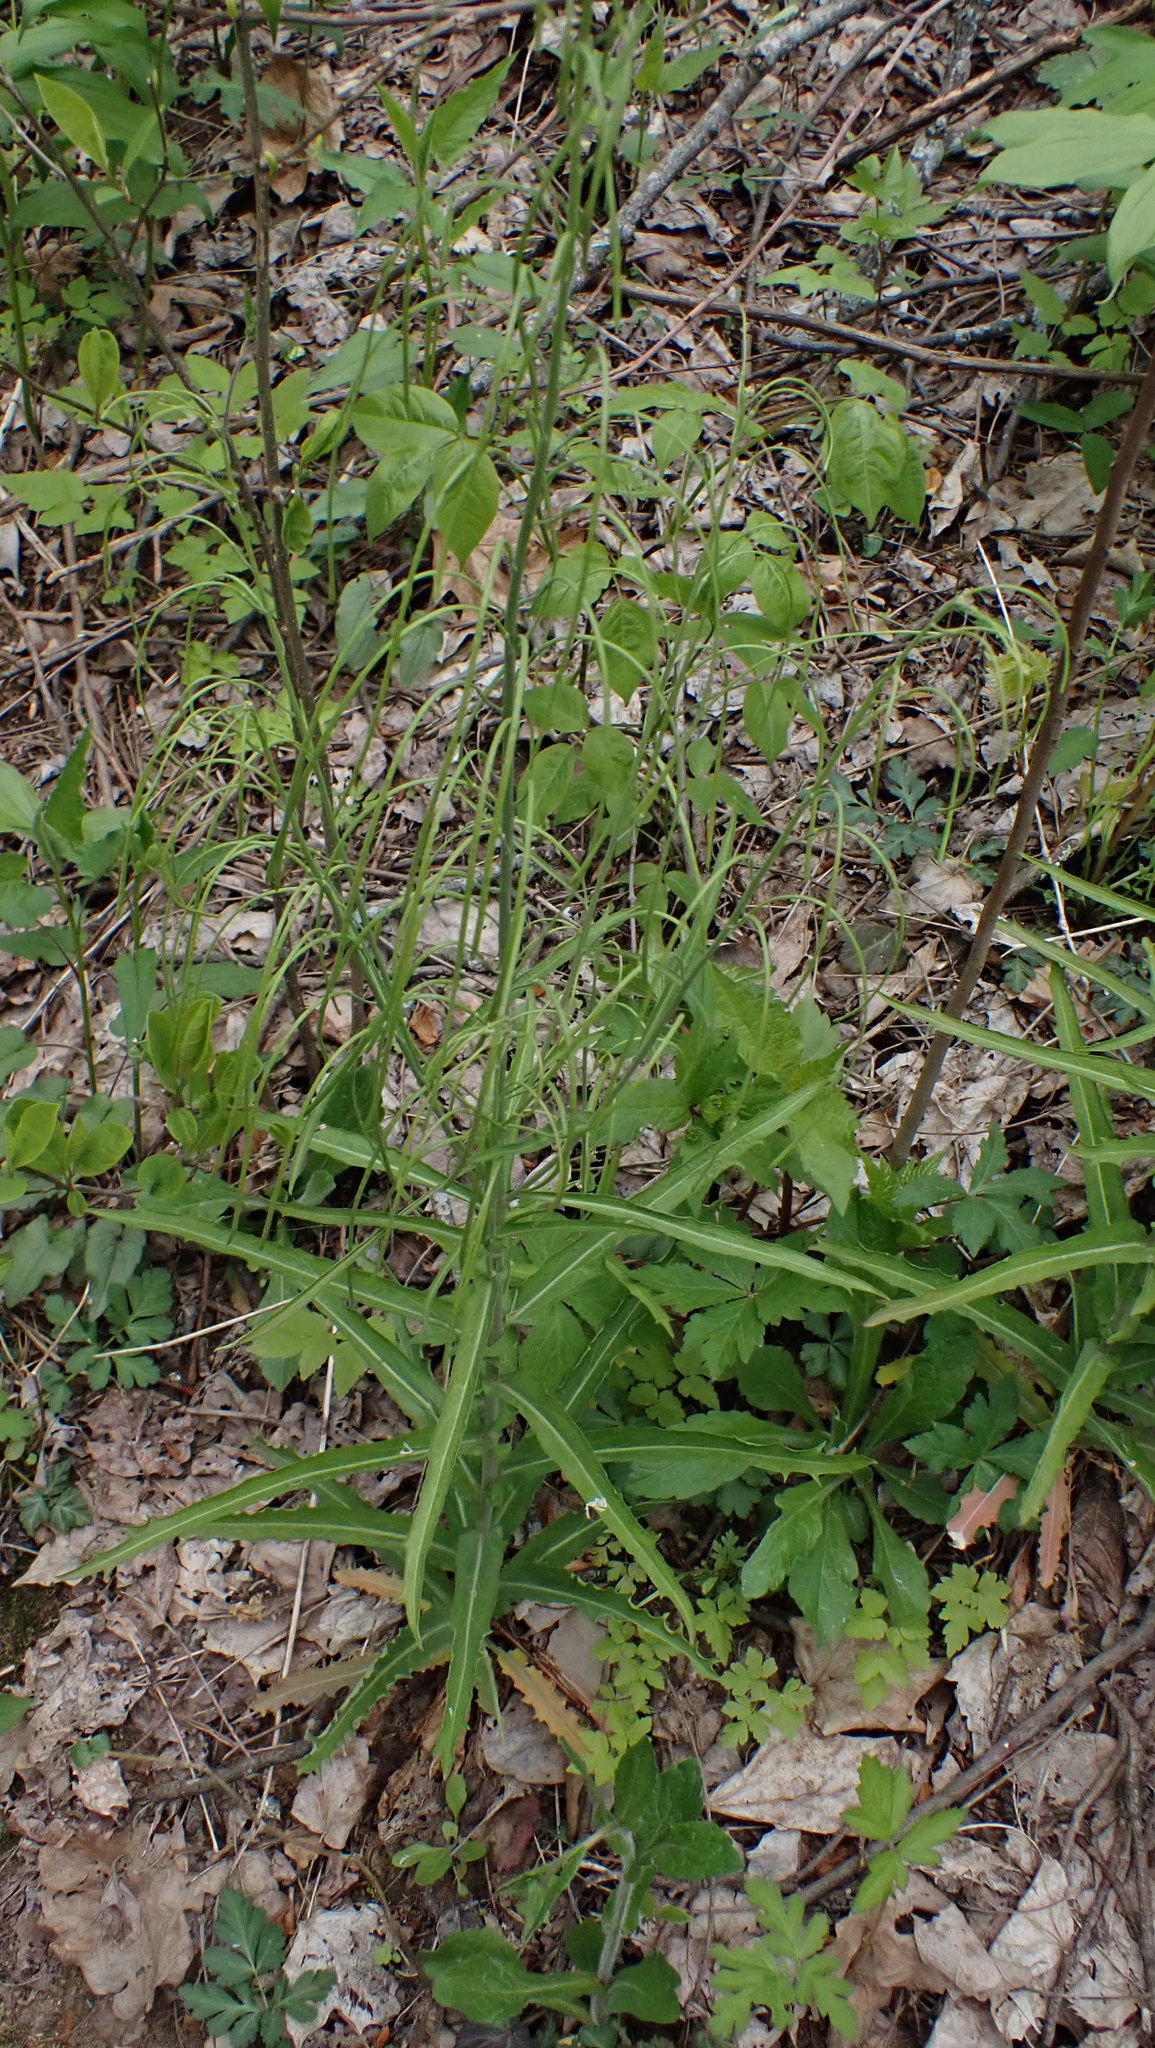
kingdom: Plantae
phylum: Tracheophyta
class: Magnoliopsida
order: Brassicales
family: Brassicaceae
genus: Borodinia
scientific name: Borodinia laevigata
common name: Smooth rockcress
